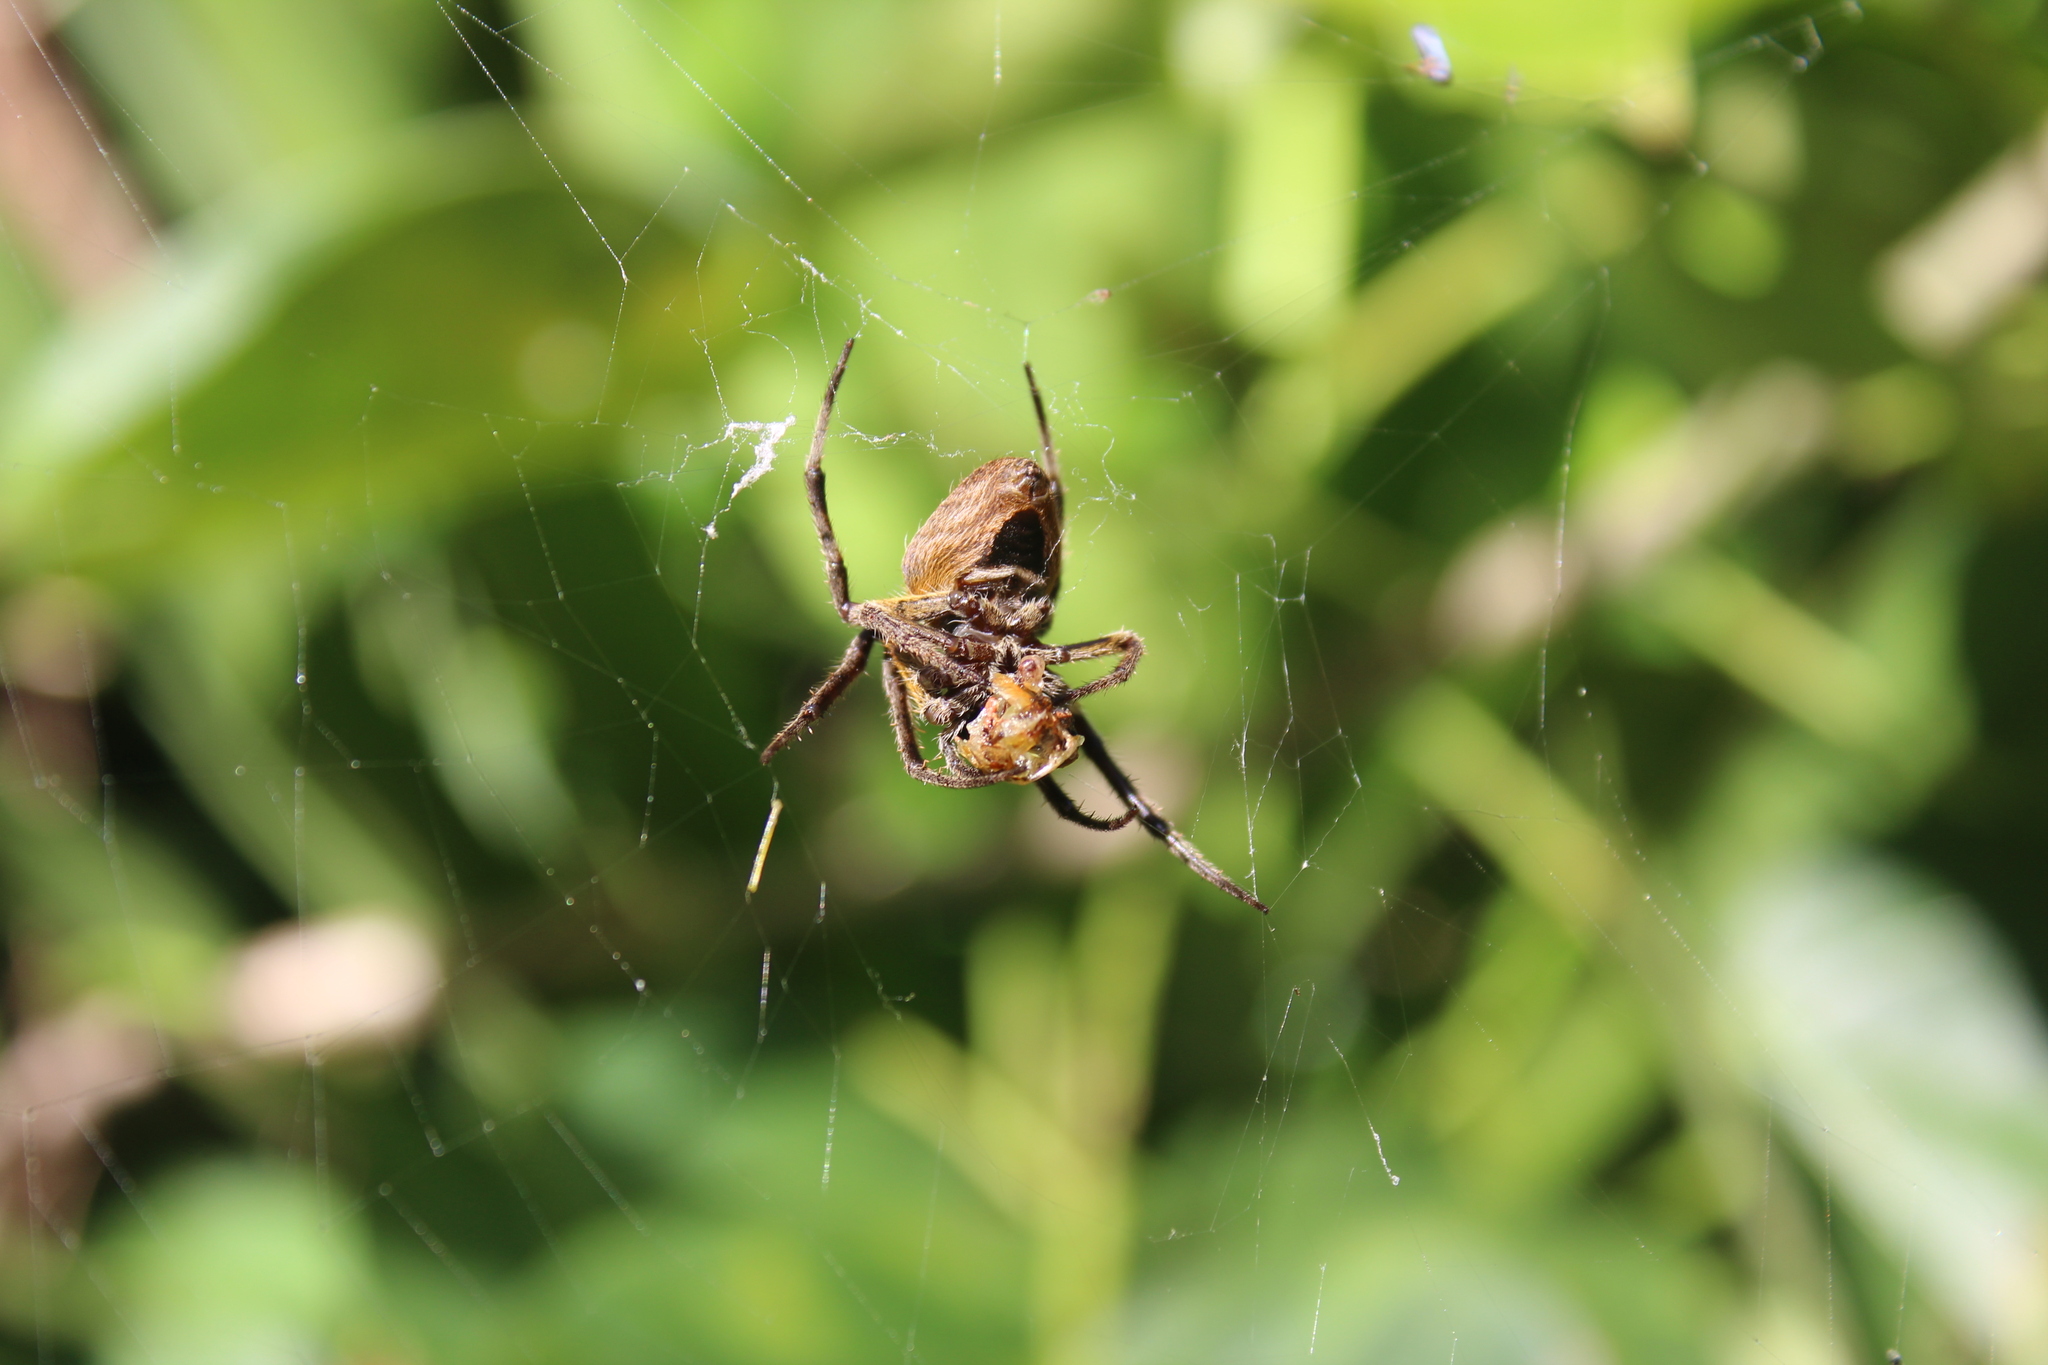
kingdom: Animalia
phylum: Arthropoda
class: Arachnida
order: Araneae
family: Araneidae
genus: Eriophora
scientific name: Eriophora ravilla
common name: Orb weavers
